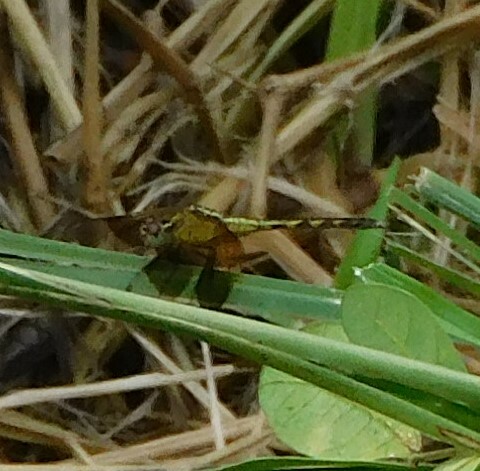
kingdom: Animalia
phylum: Arthropoda
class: Insecta
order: Odonata
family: Libellulidae
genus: Erythrodiplax
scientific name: Erythrodiplax funerea
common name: Black-winged dragonlet
